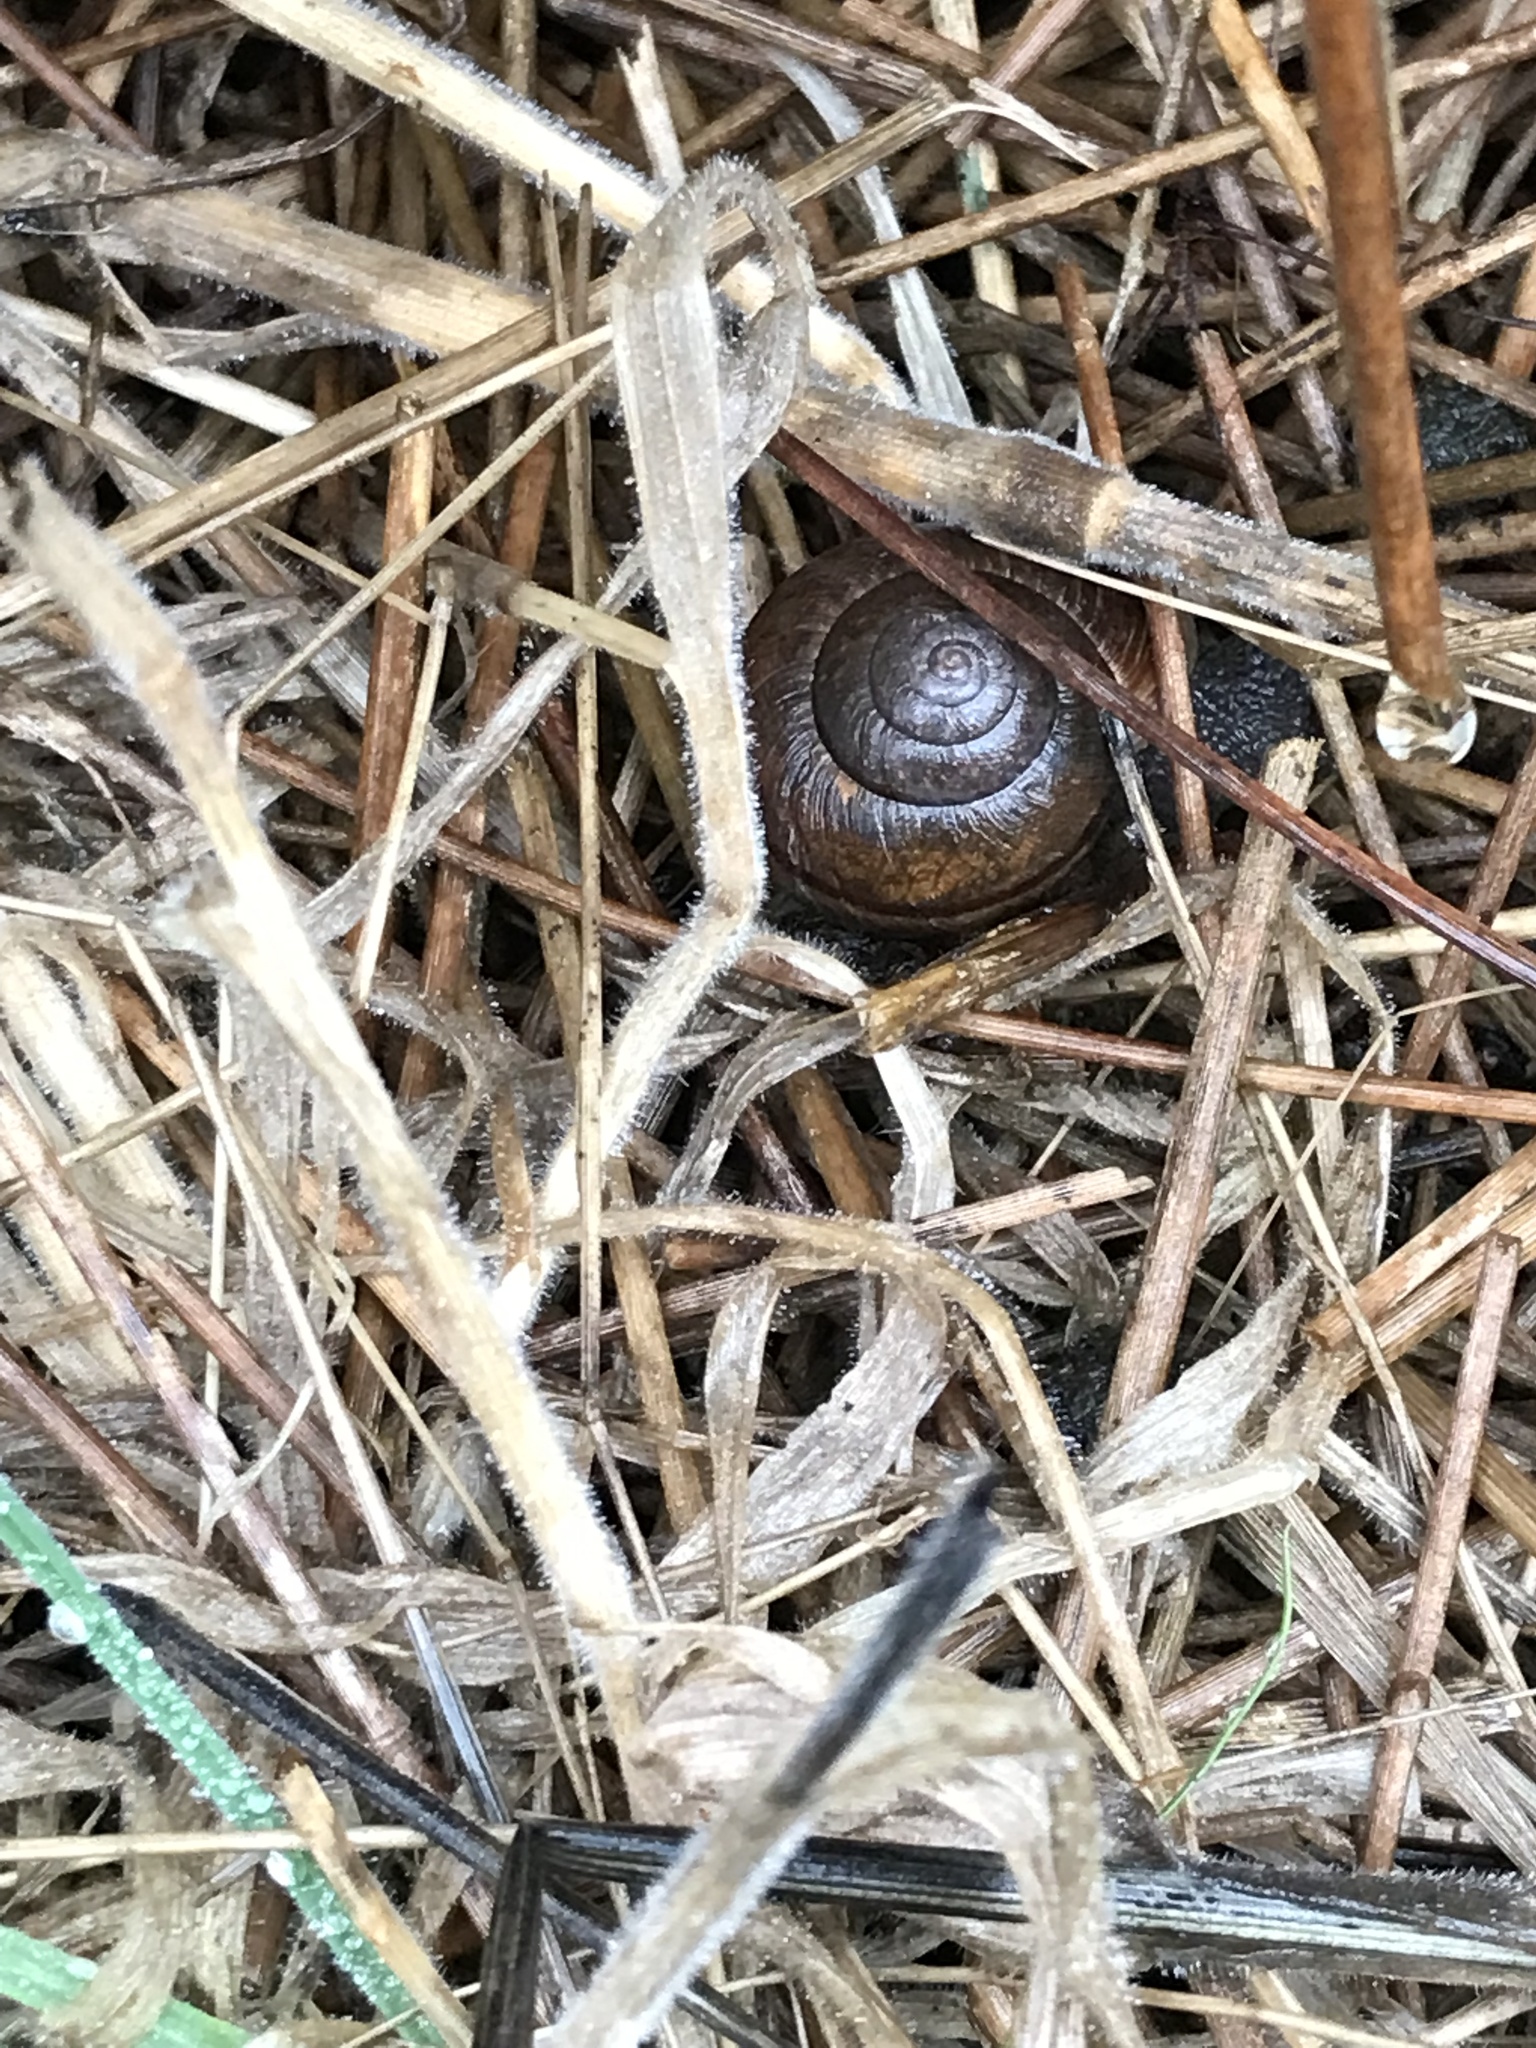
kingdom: Animalia
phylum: Mollusca
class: Gastropoda
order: Stylommatophora
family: Xanthonychidae
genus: Helminthoglypta
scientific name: Helminthoglypta nickliniana
